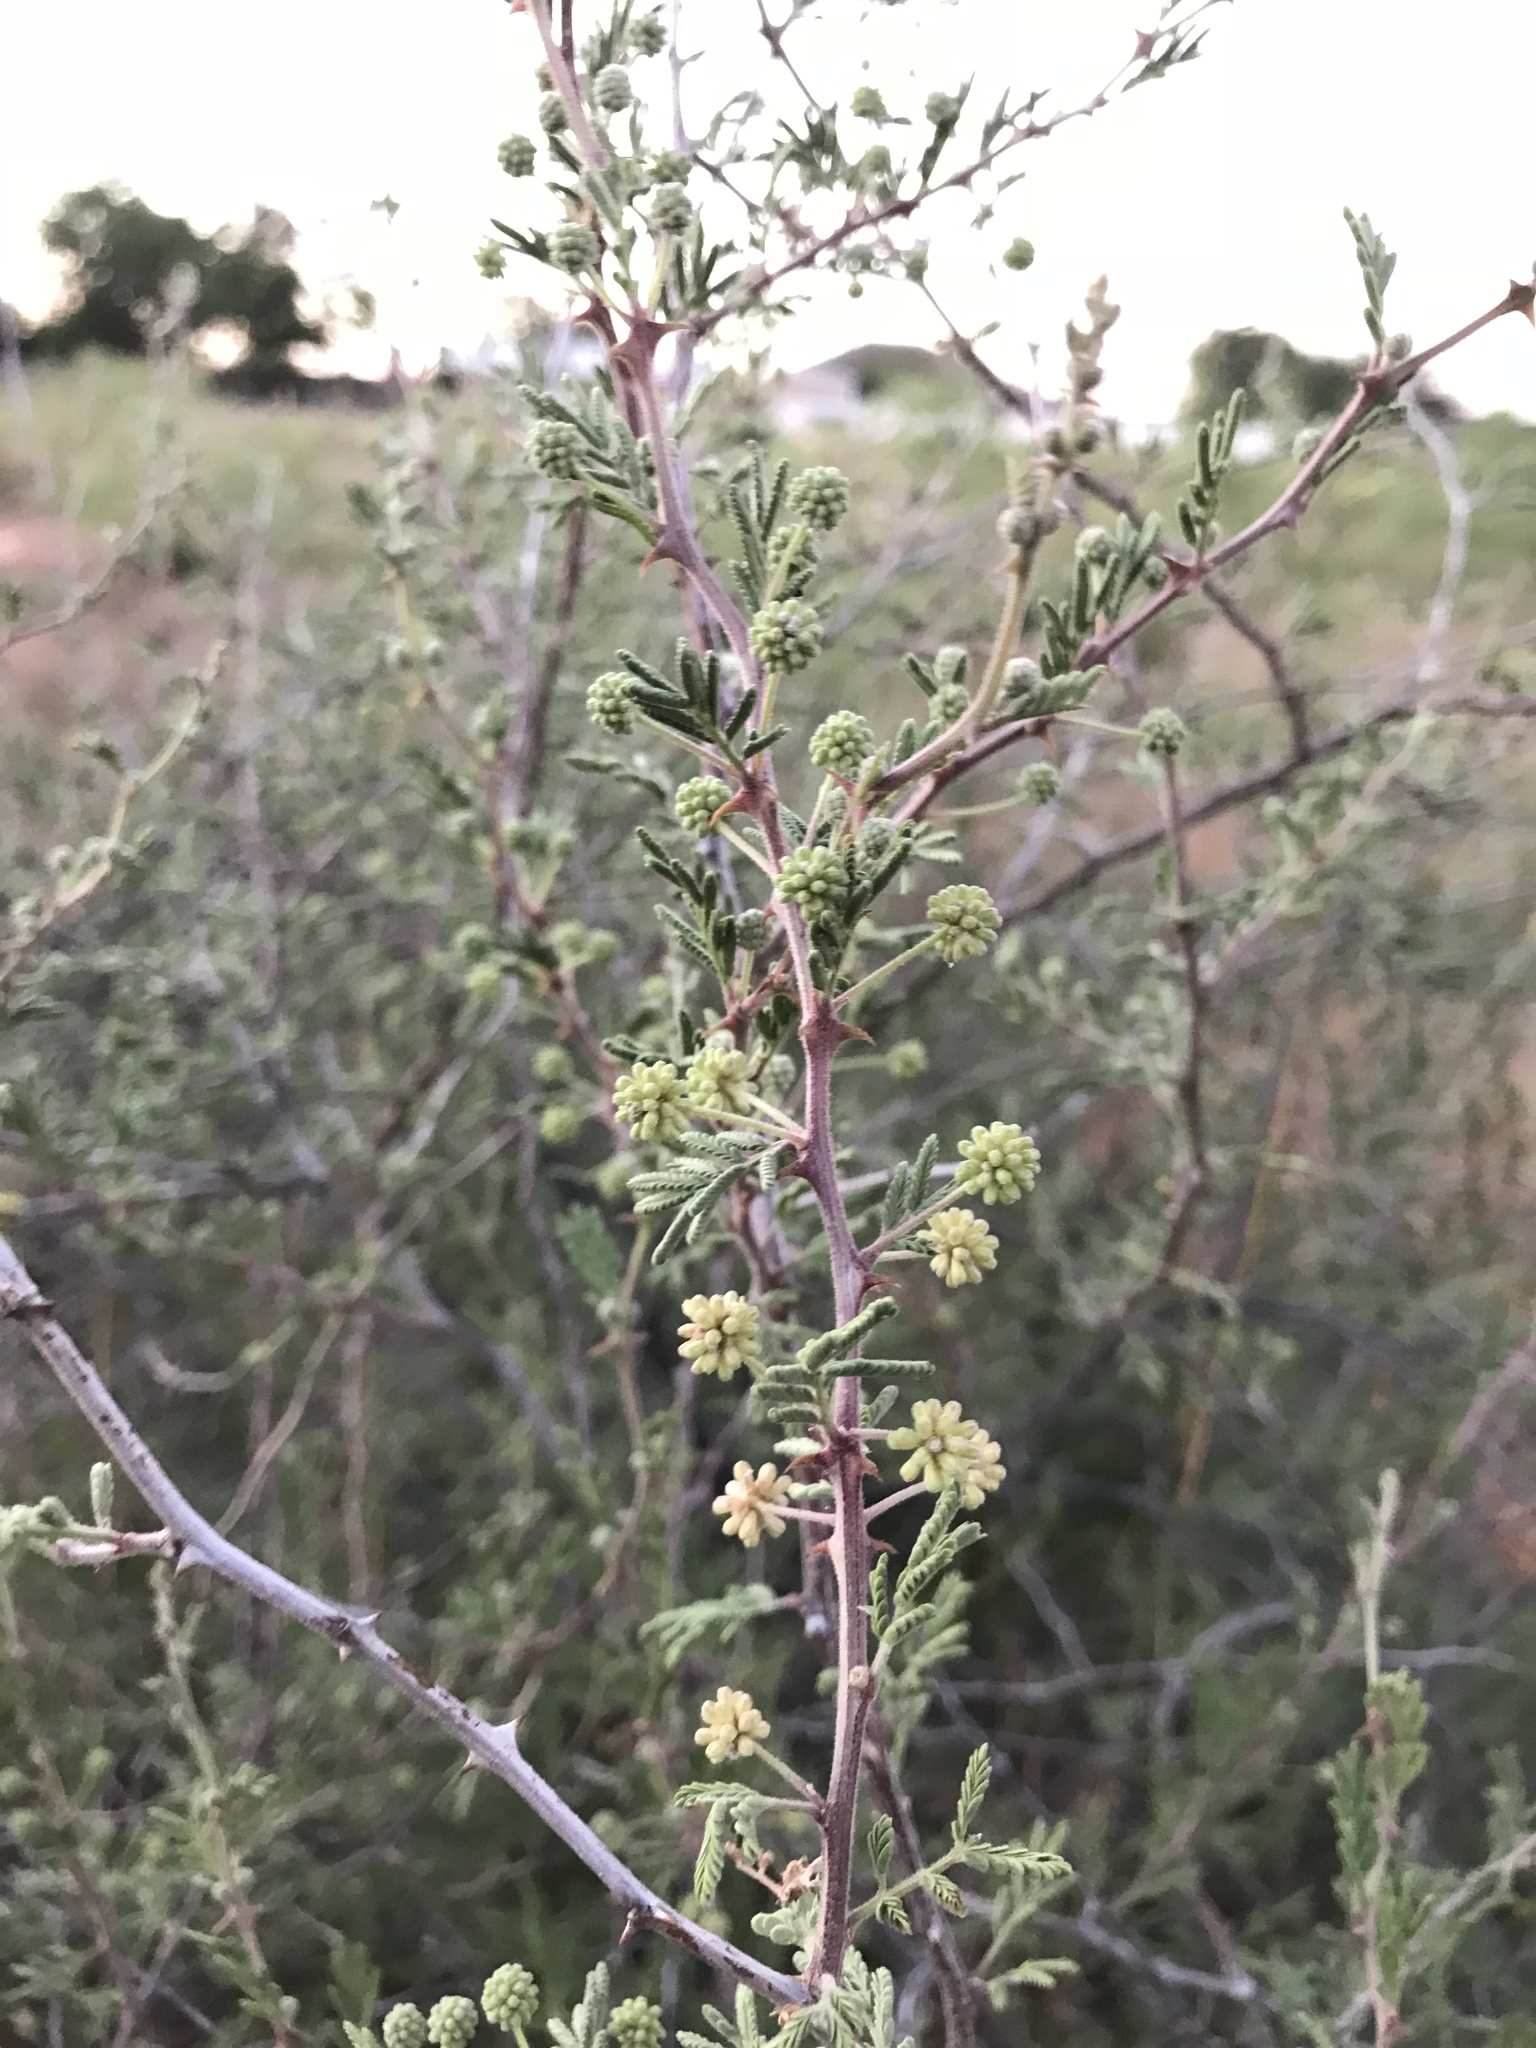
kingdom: Plantae
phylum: Tracheophyta
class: Magnoliopsida
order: Fabales
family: Fabaceae
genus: Mimosa
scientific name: Mimosa aculeaticarpa
